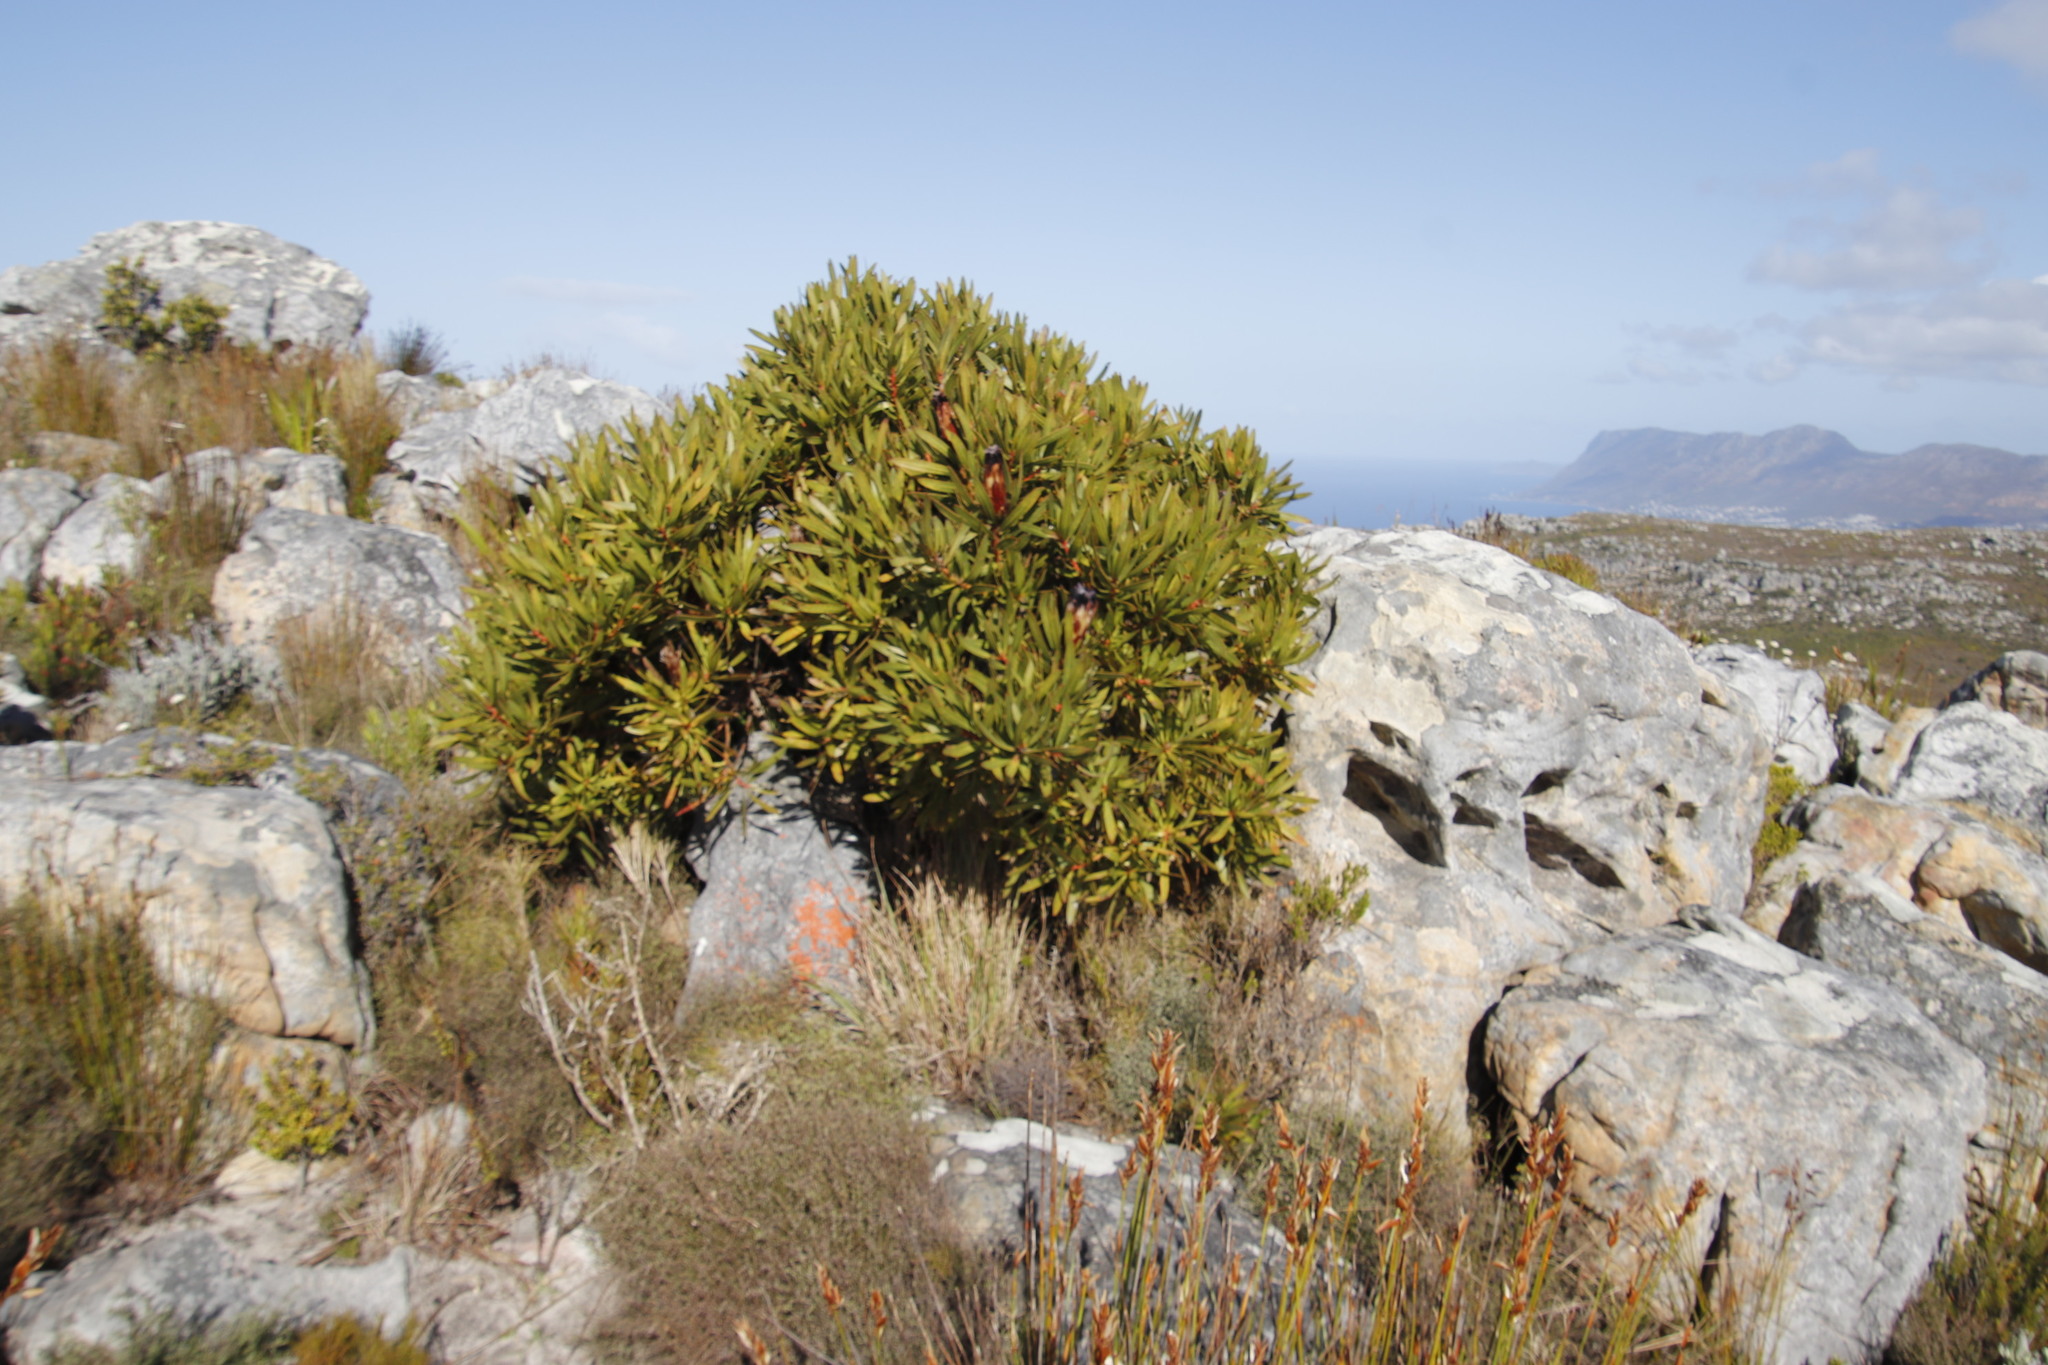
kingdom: Plantae
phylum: Tracheophyta
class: Magnoliopsida
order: Proteales
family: Proteaceae
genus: Protea
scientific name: Protea lepidocarpodendron
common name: Black-bearded protea
